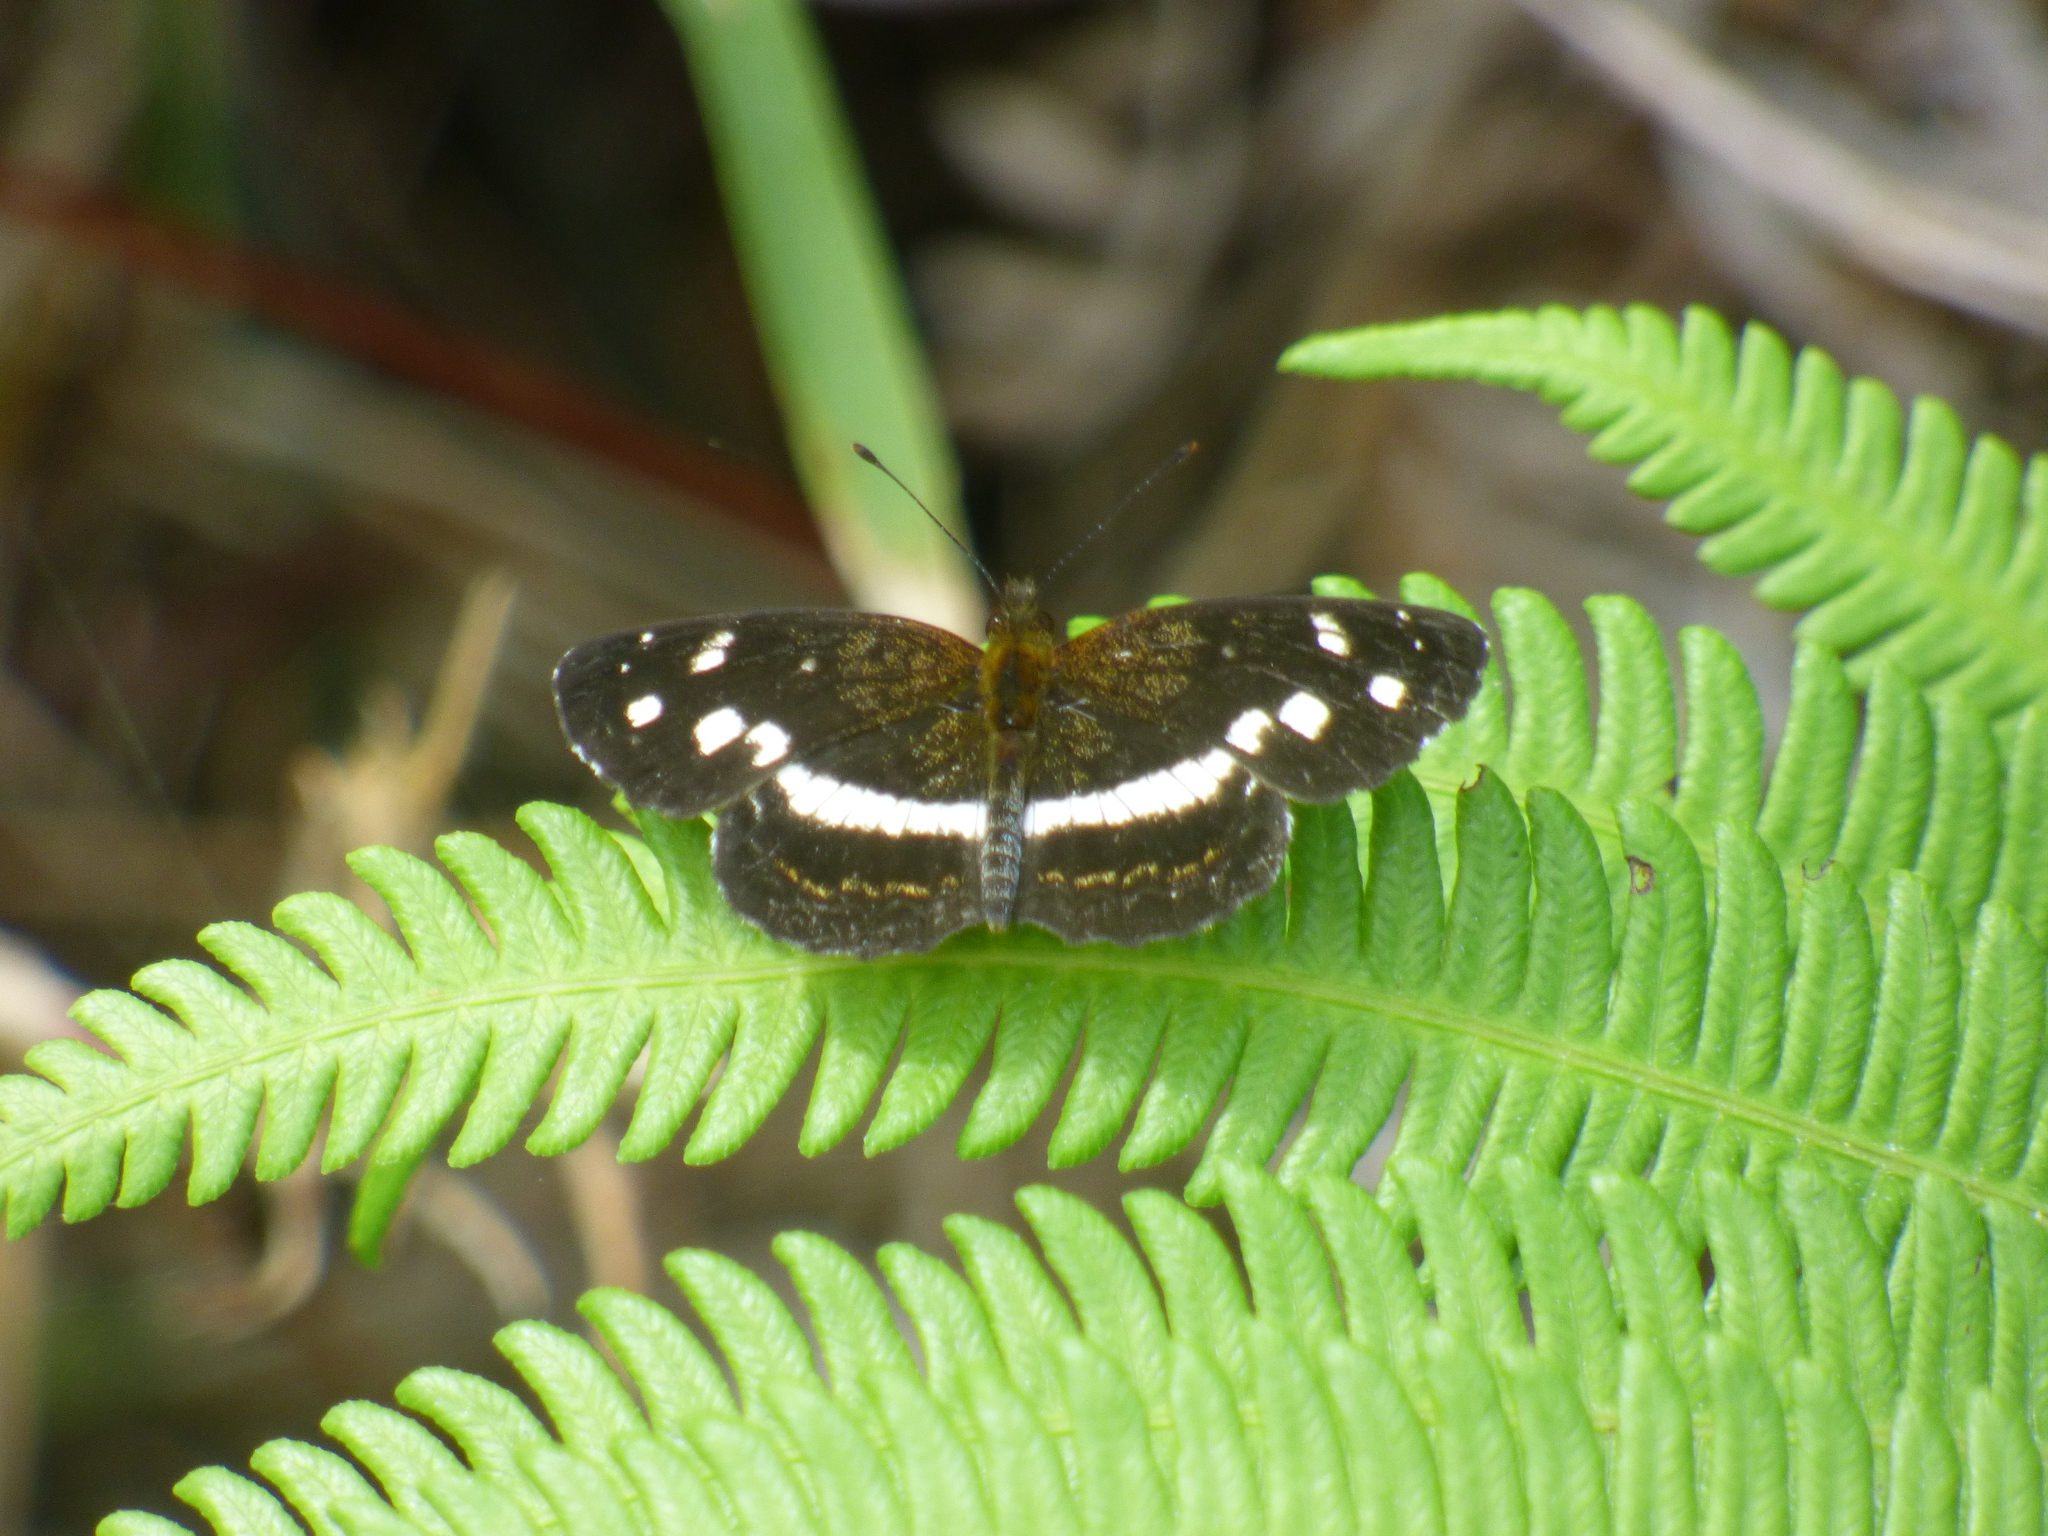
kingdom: Animalia
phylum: Arthropoda
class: Insecta
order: Lepidoptera
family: Nymphalidae
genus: Janatella
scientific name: Janatella fellula
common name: Colombian crescent
